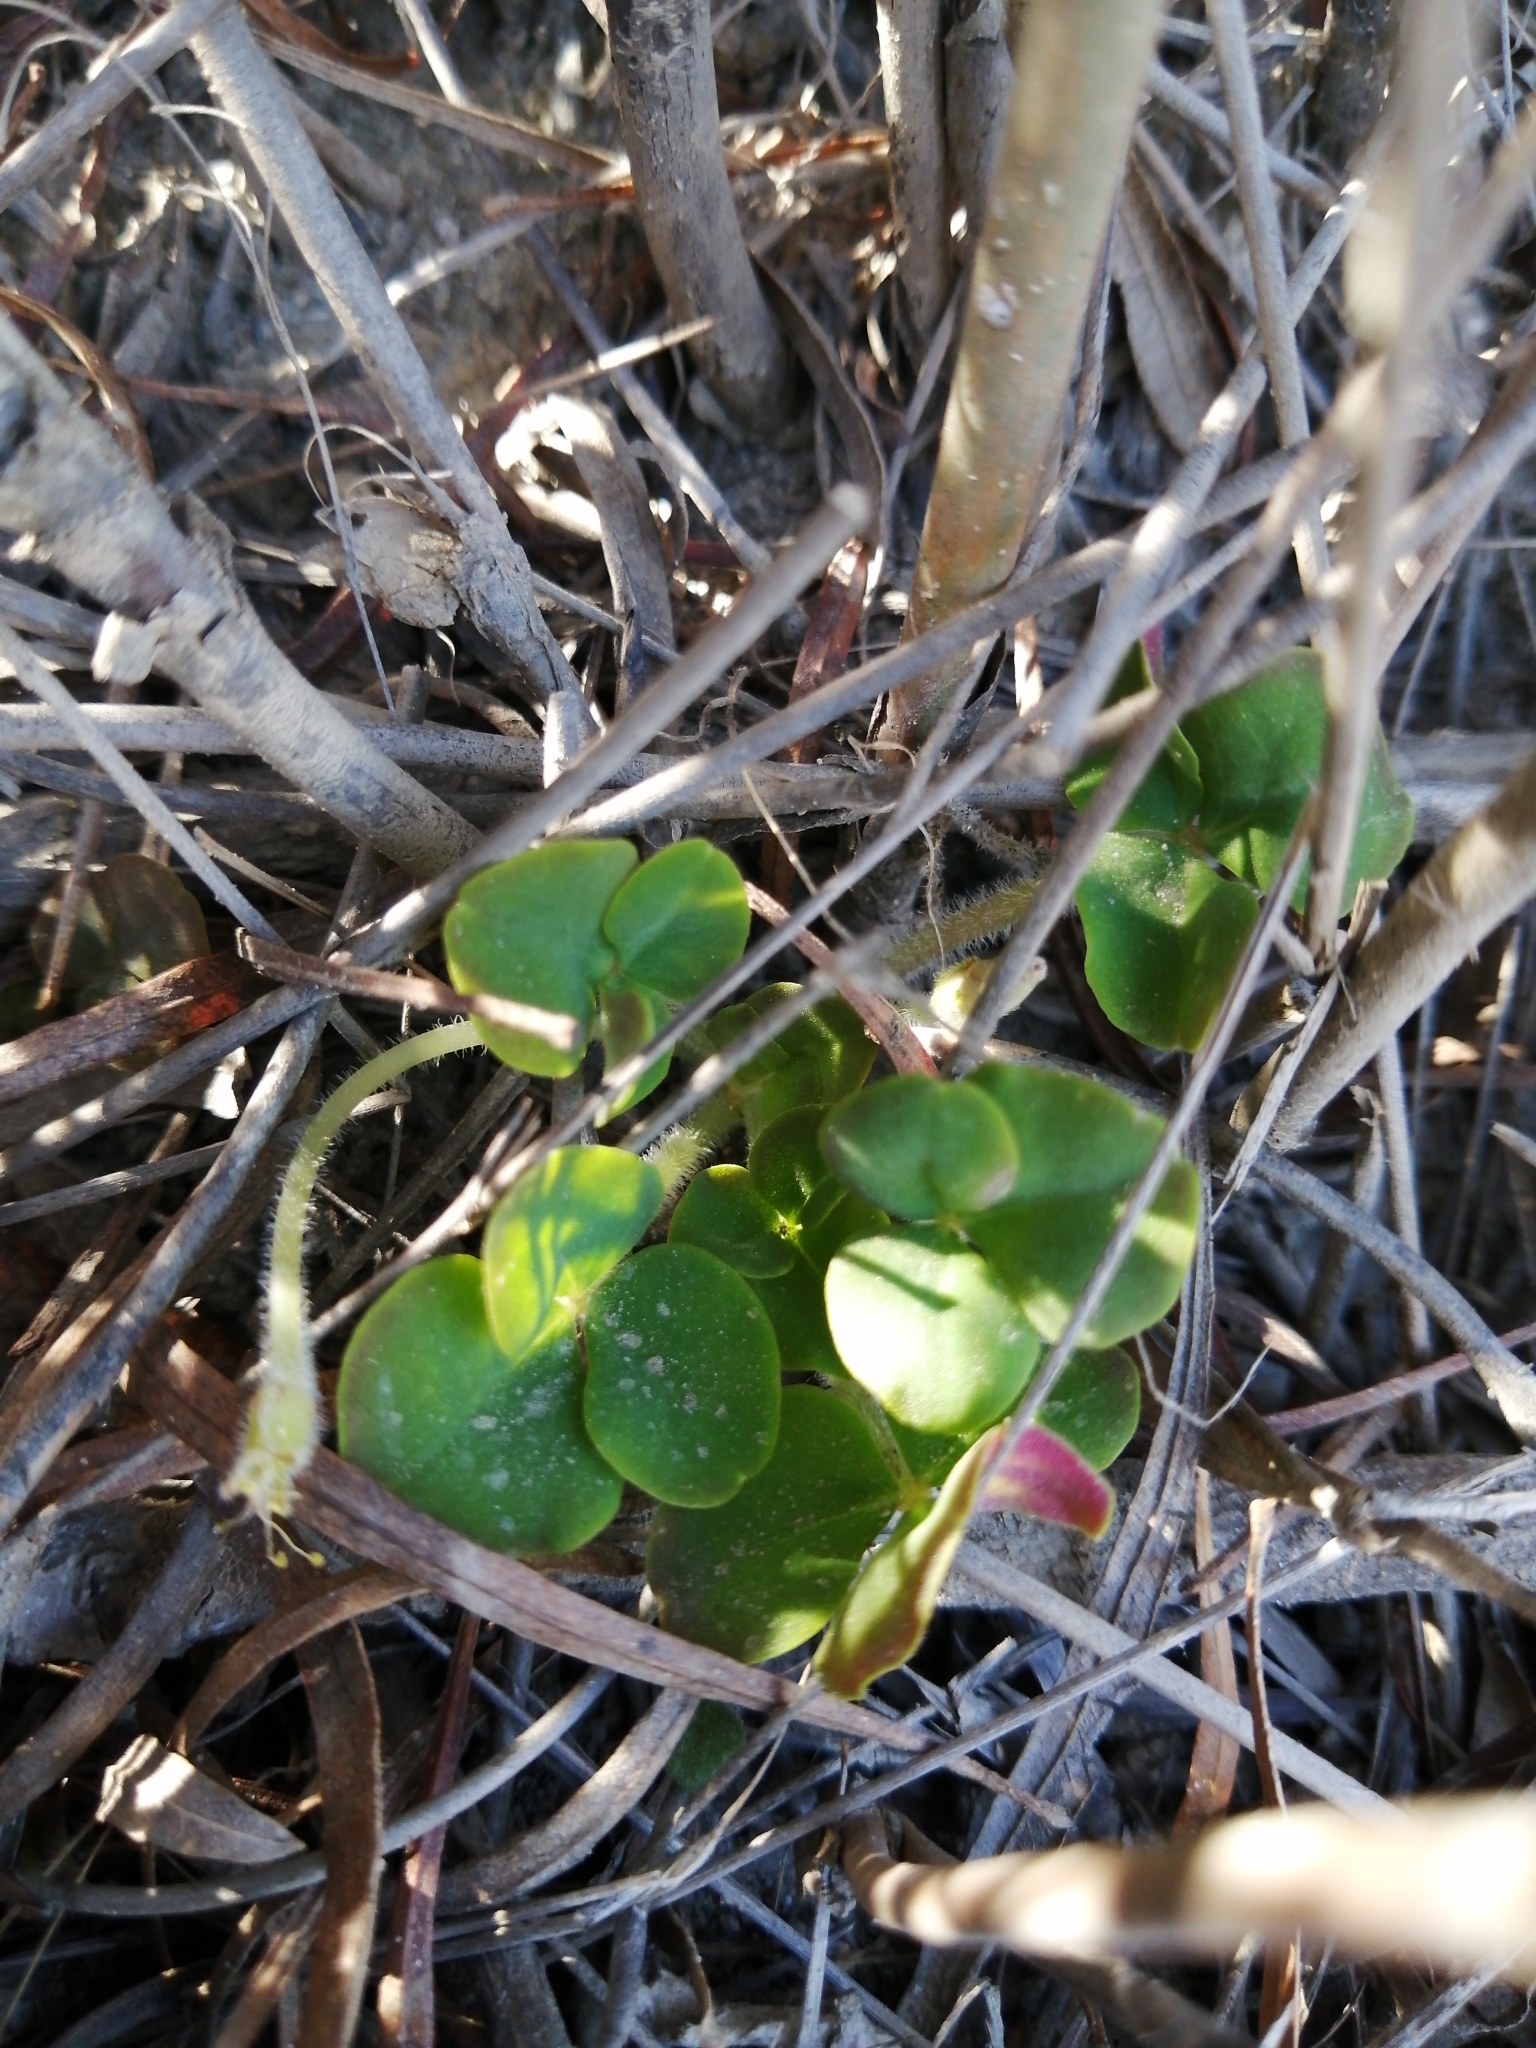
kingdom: Plantae
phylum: Tracheophyta
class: Magnoliopsida
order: Oxalidales
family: Oxalidaceae
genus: Oxalis
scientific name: Oxalis pulchella
